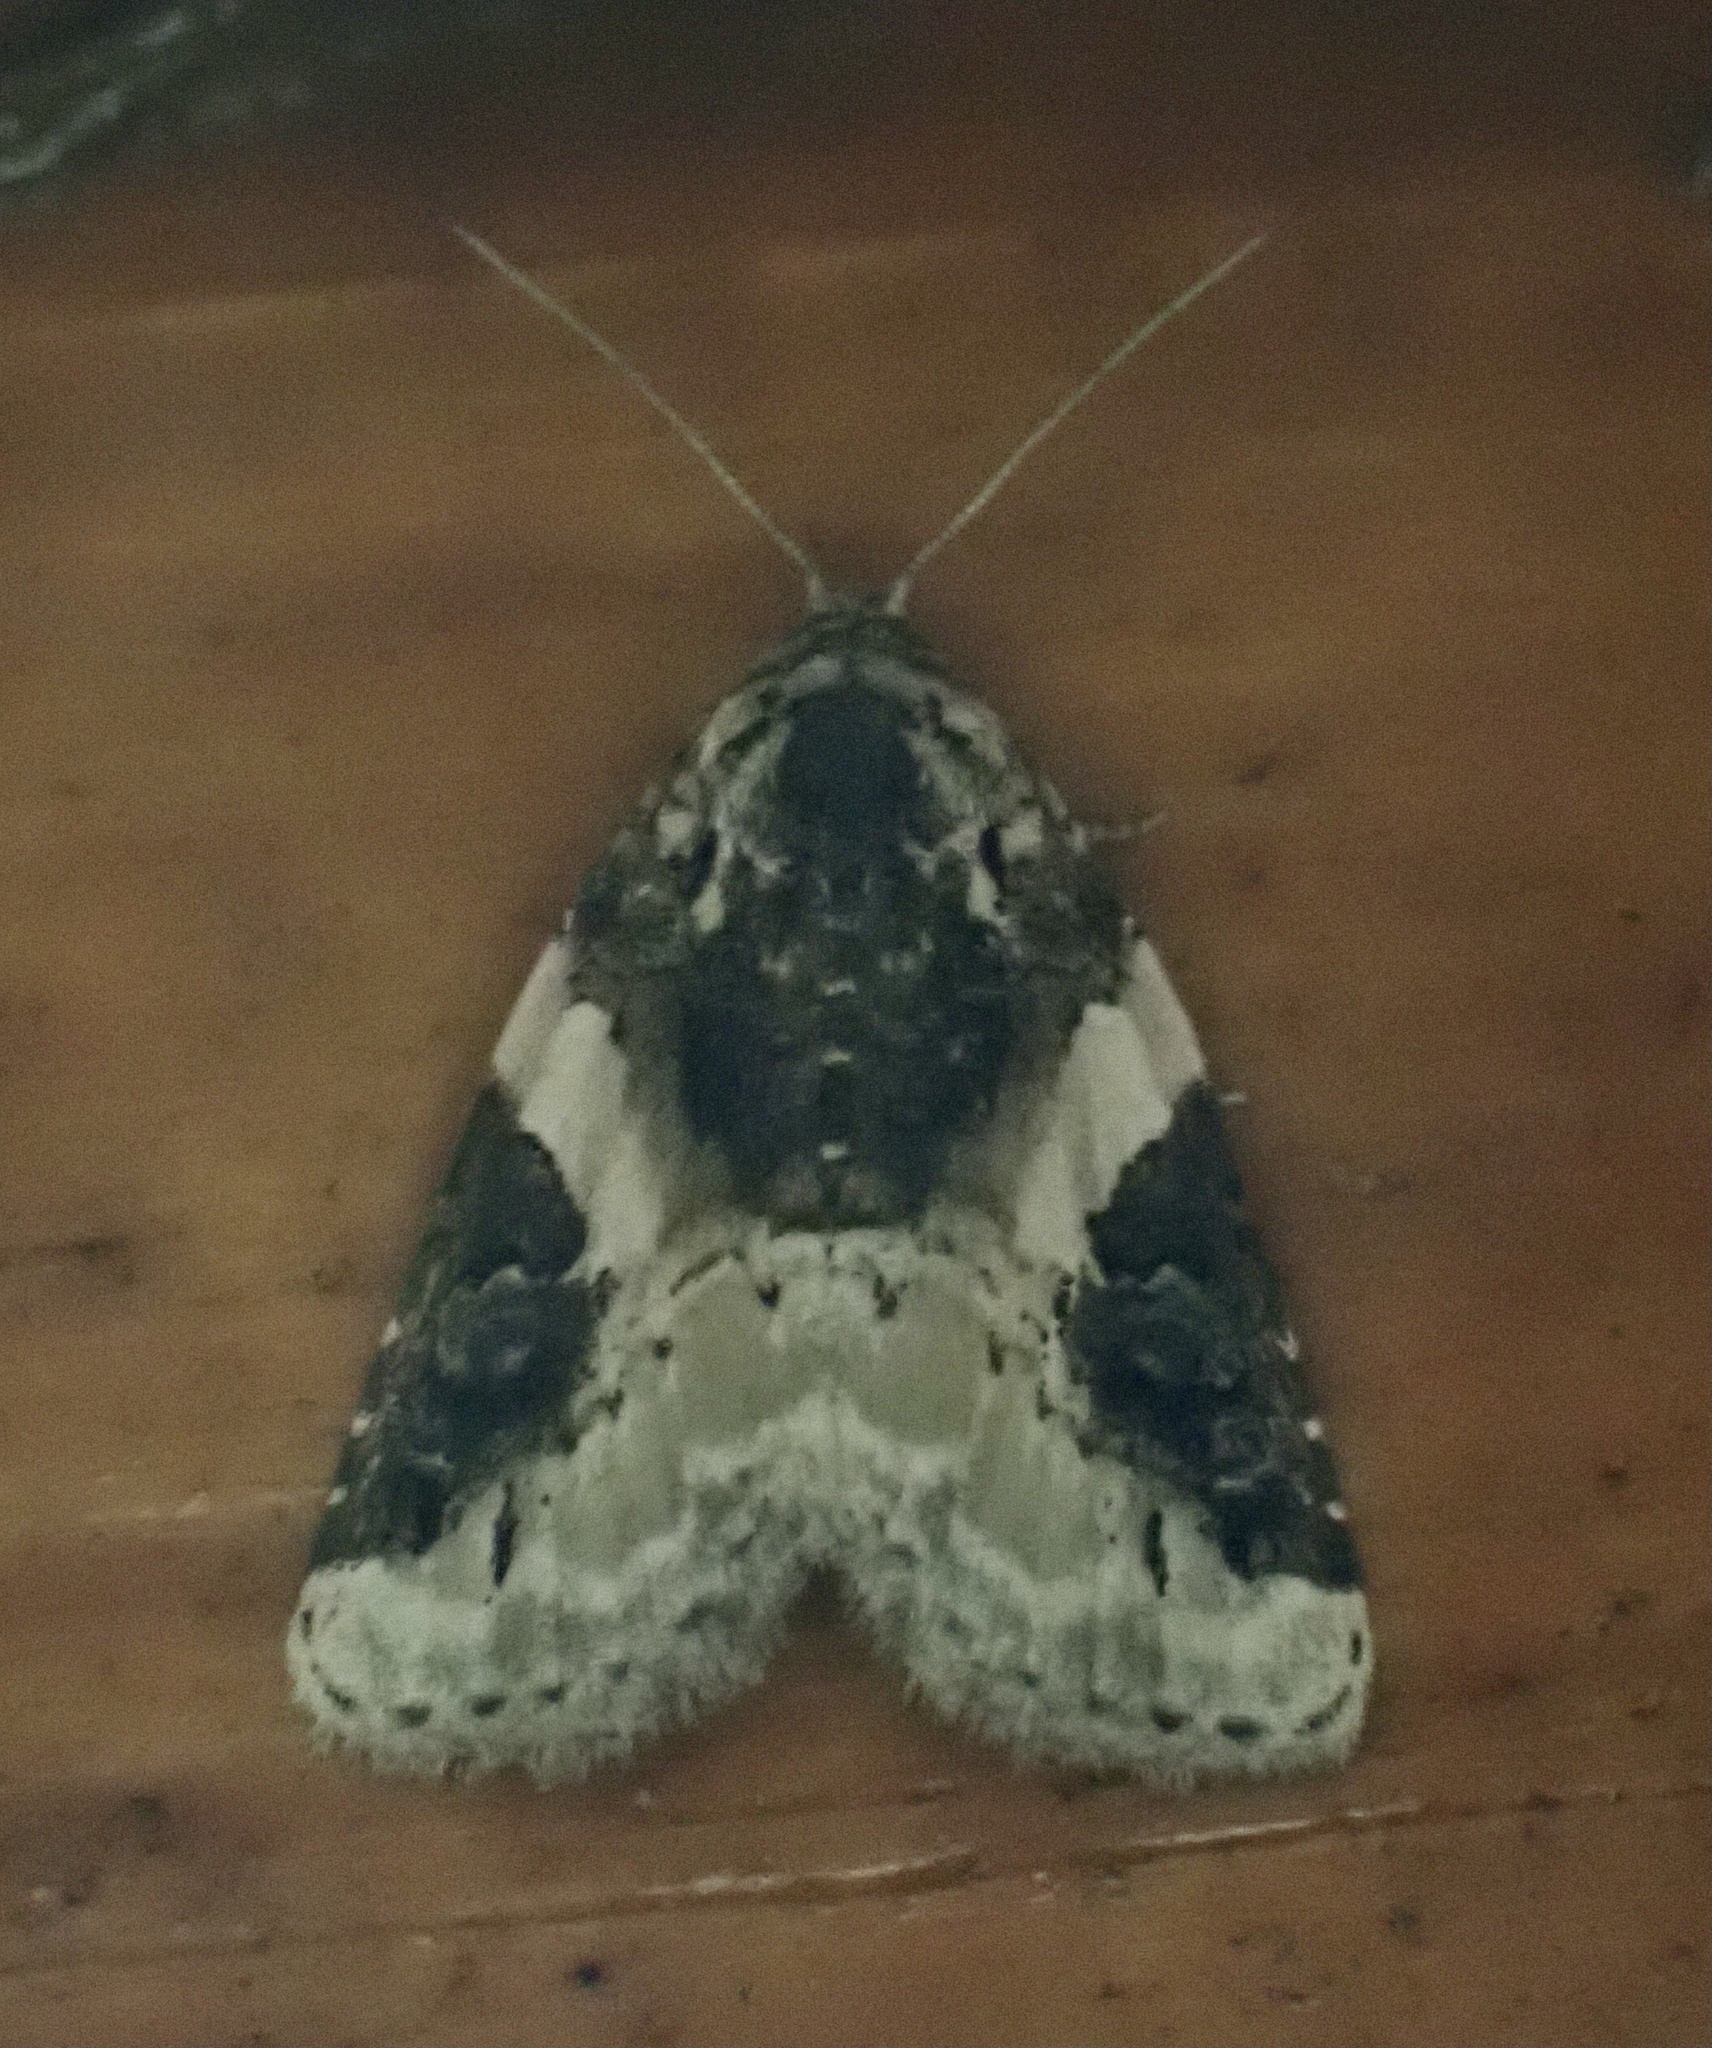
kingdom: Animalia
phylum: Arthropoda
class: Insecta
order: Lepidoptera
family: Noctuidae
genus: Pseudeustrotia
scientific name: Pseudeustrotia carneola
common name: Pink-barred lithacodia moth
